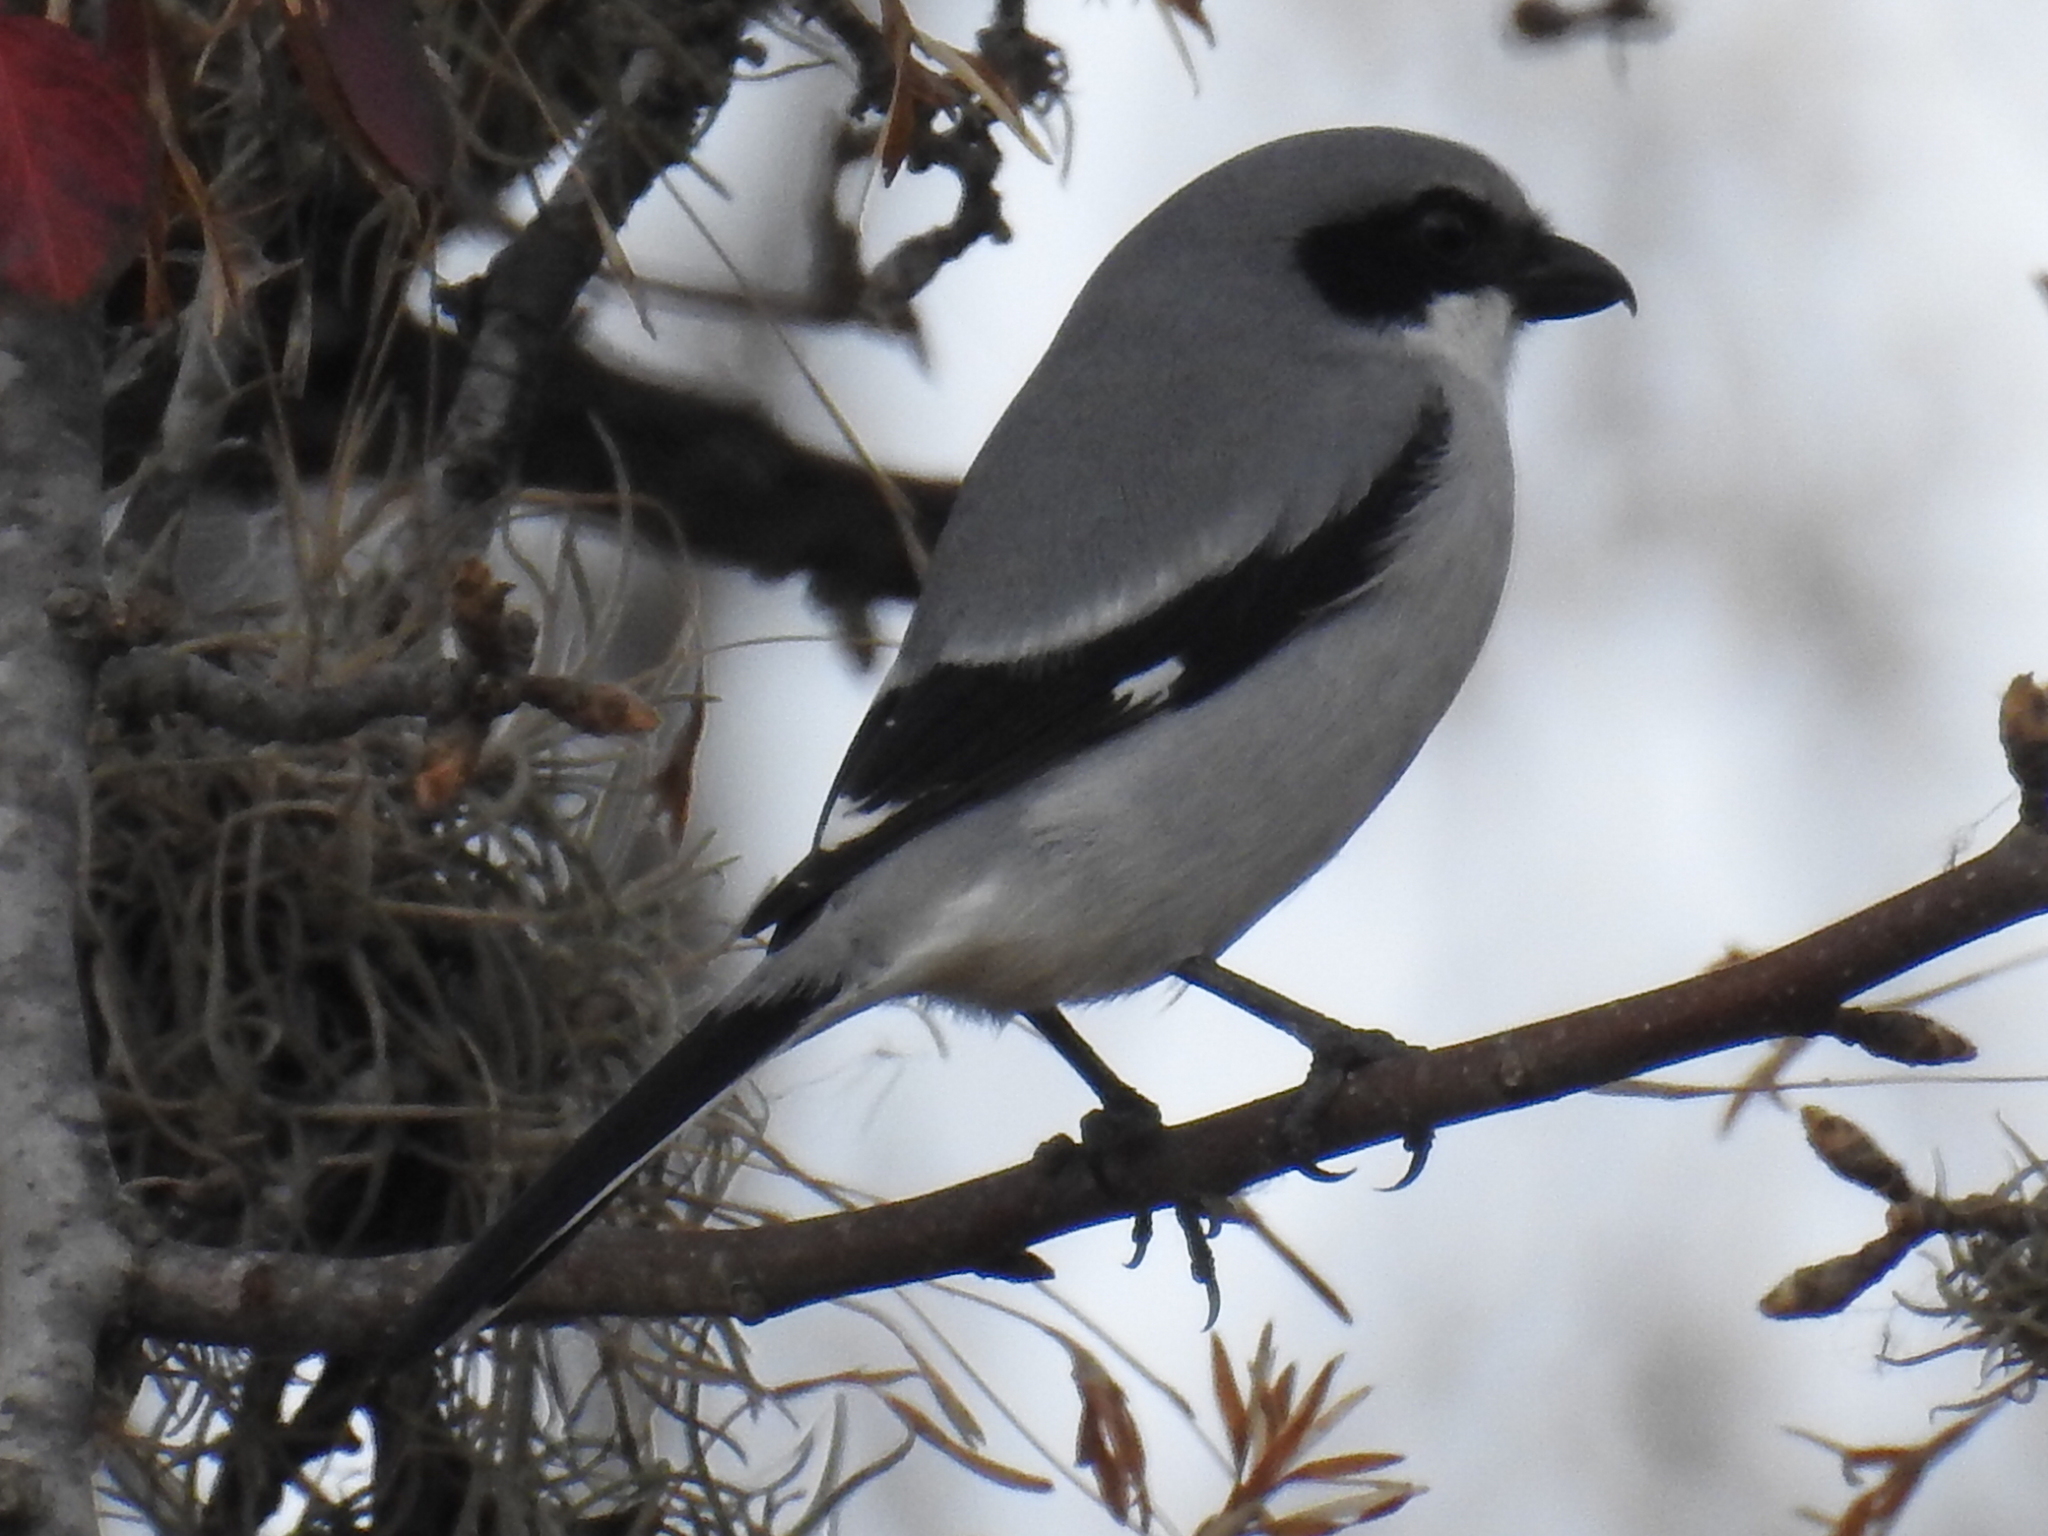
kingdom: Animalia
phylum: Chordata
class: Aves
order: Passeriformes
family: Laniidae
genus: Lanius
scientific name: Lanius ludovicianus
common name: Loggerhead shrike
